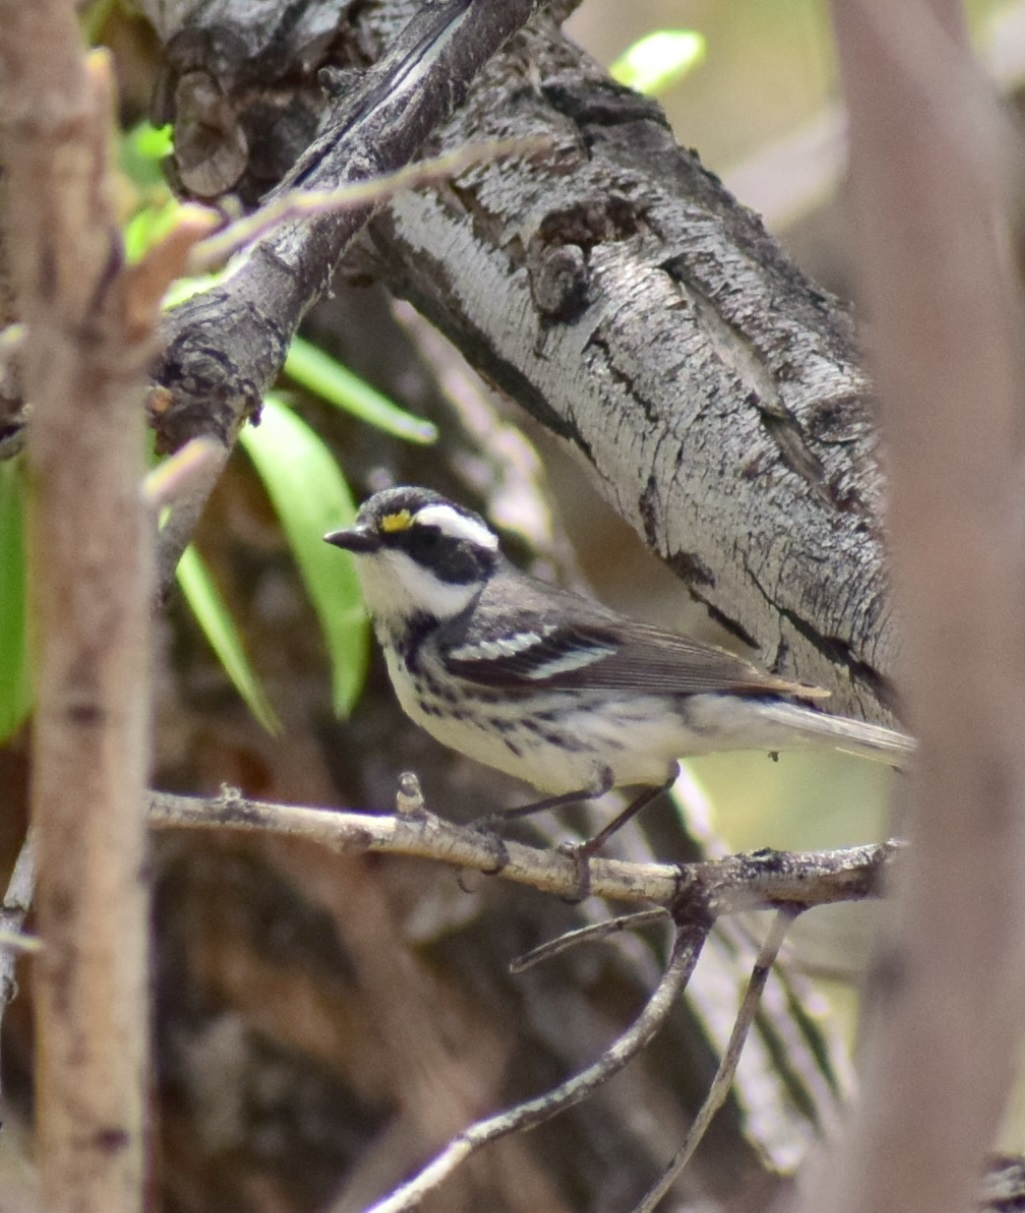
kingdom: Animalia
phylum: Chordata
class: Aves
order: Passeriformes
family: Parulidae
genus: Setophaga
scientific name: Setophaga nigrescens
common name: Black-throated gray warbler
